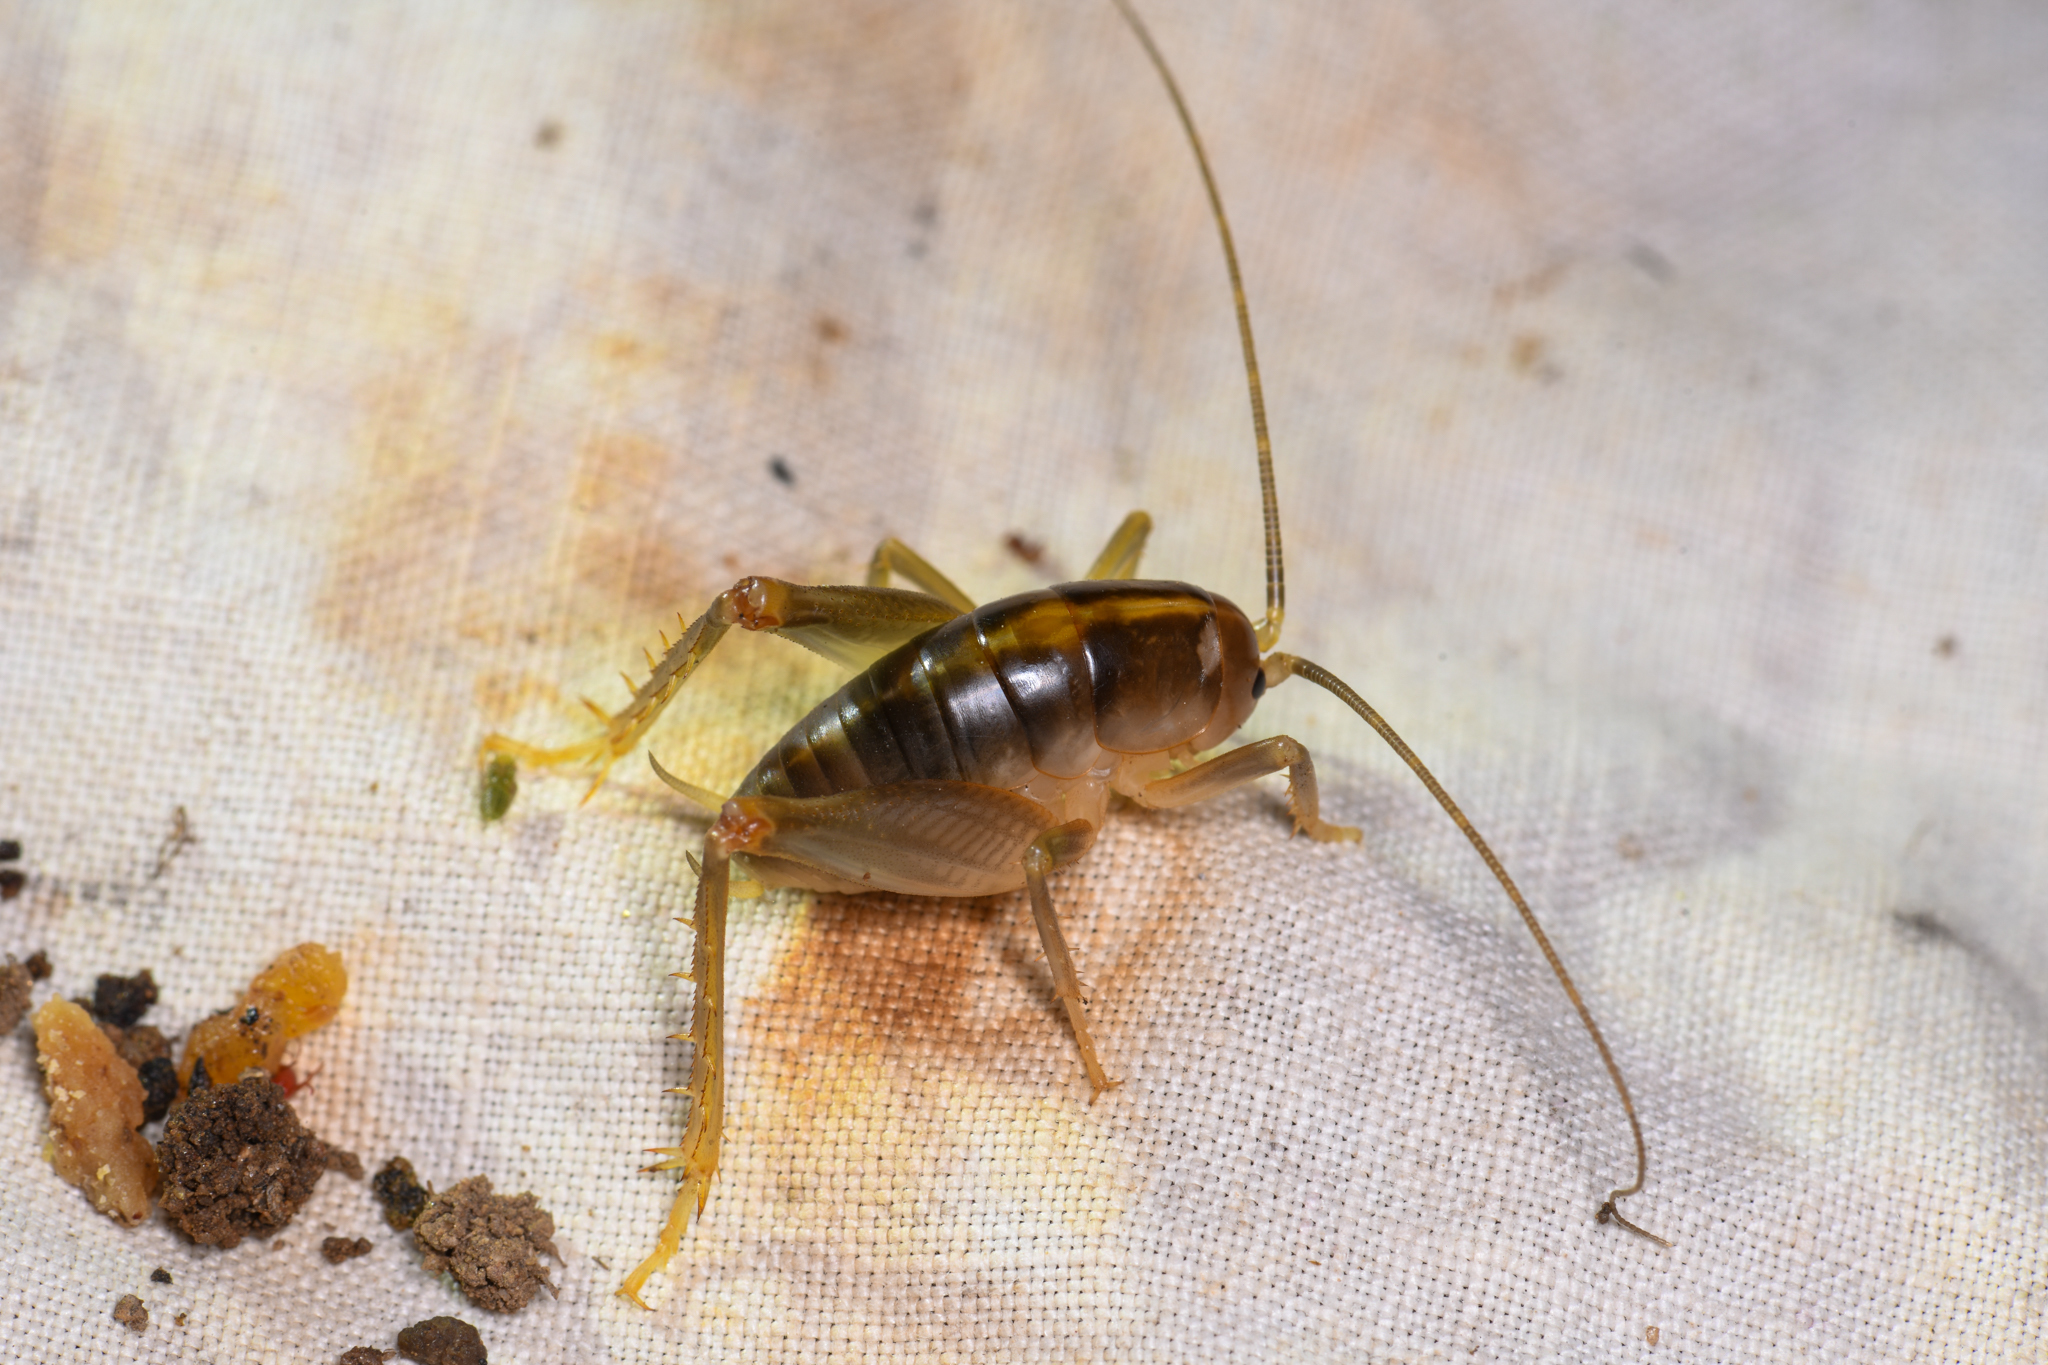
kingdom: Animalia
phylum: Arthropoda
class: Insecta
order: Orthoptera
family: Rhaphidophoridae
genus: Ceuthophilus
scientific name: Ceuthophilus hesperus
